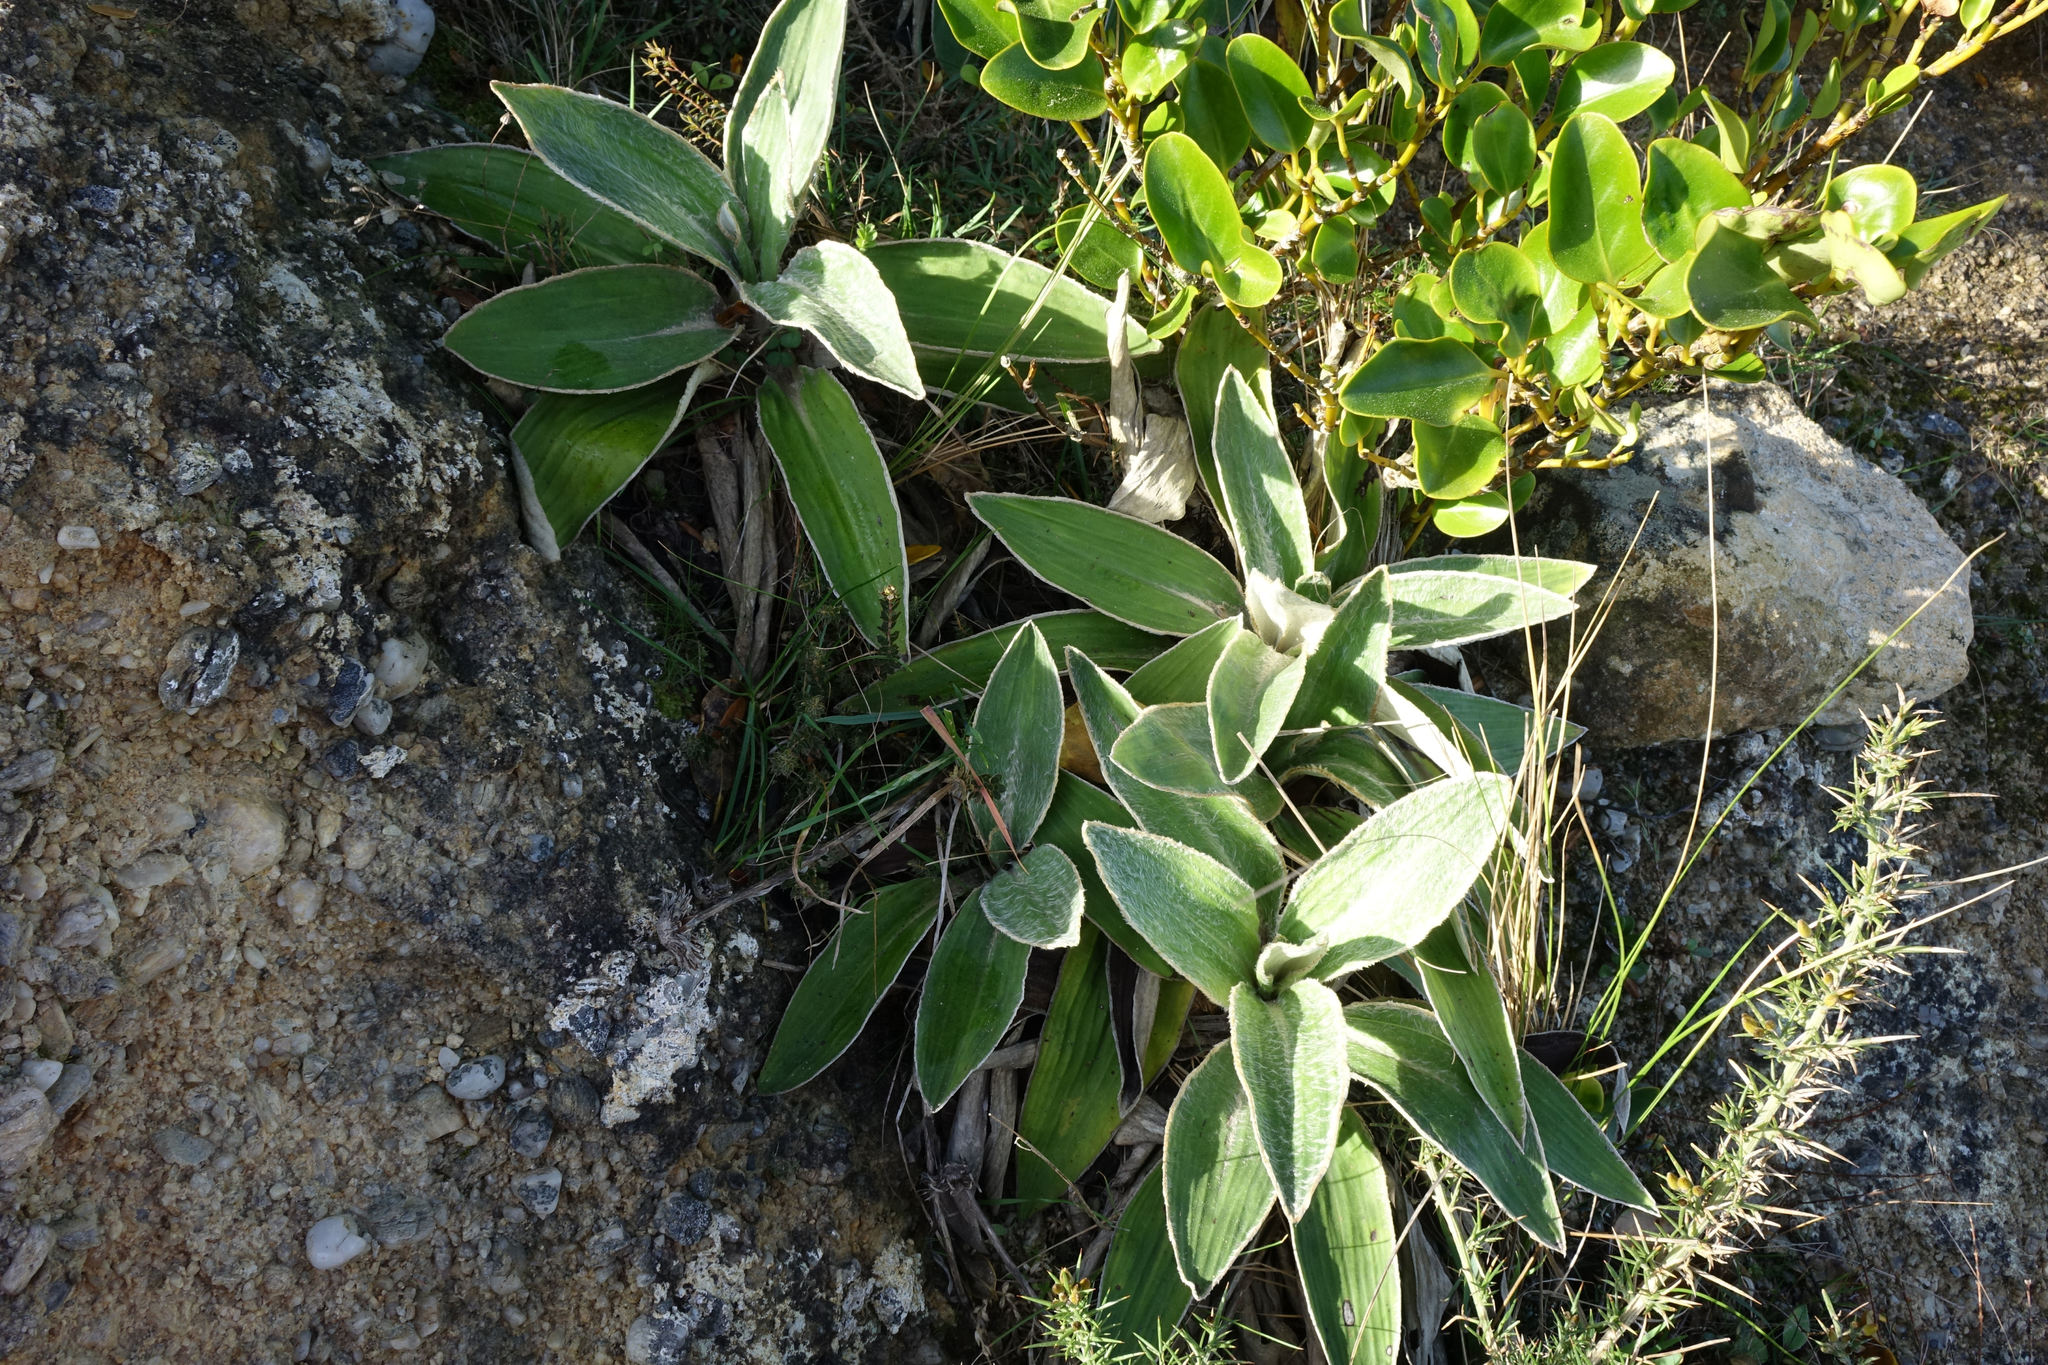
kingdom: Plantae
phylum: Tracheophyta
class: Magnoliopsida
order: Asterales
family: Asteraceae
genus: Celmisia
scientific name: Celmisia hookeri
